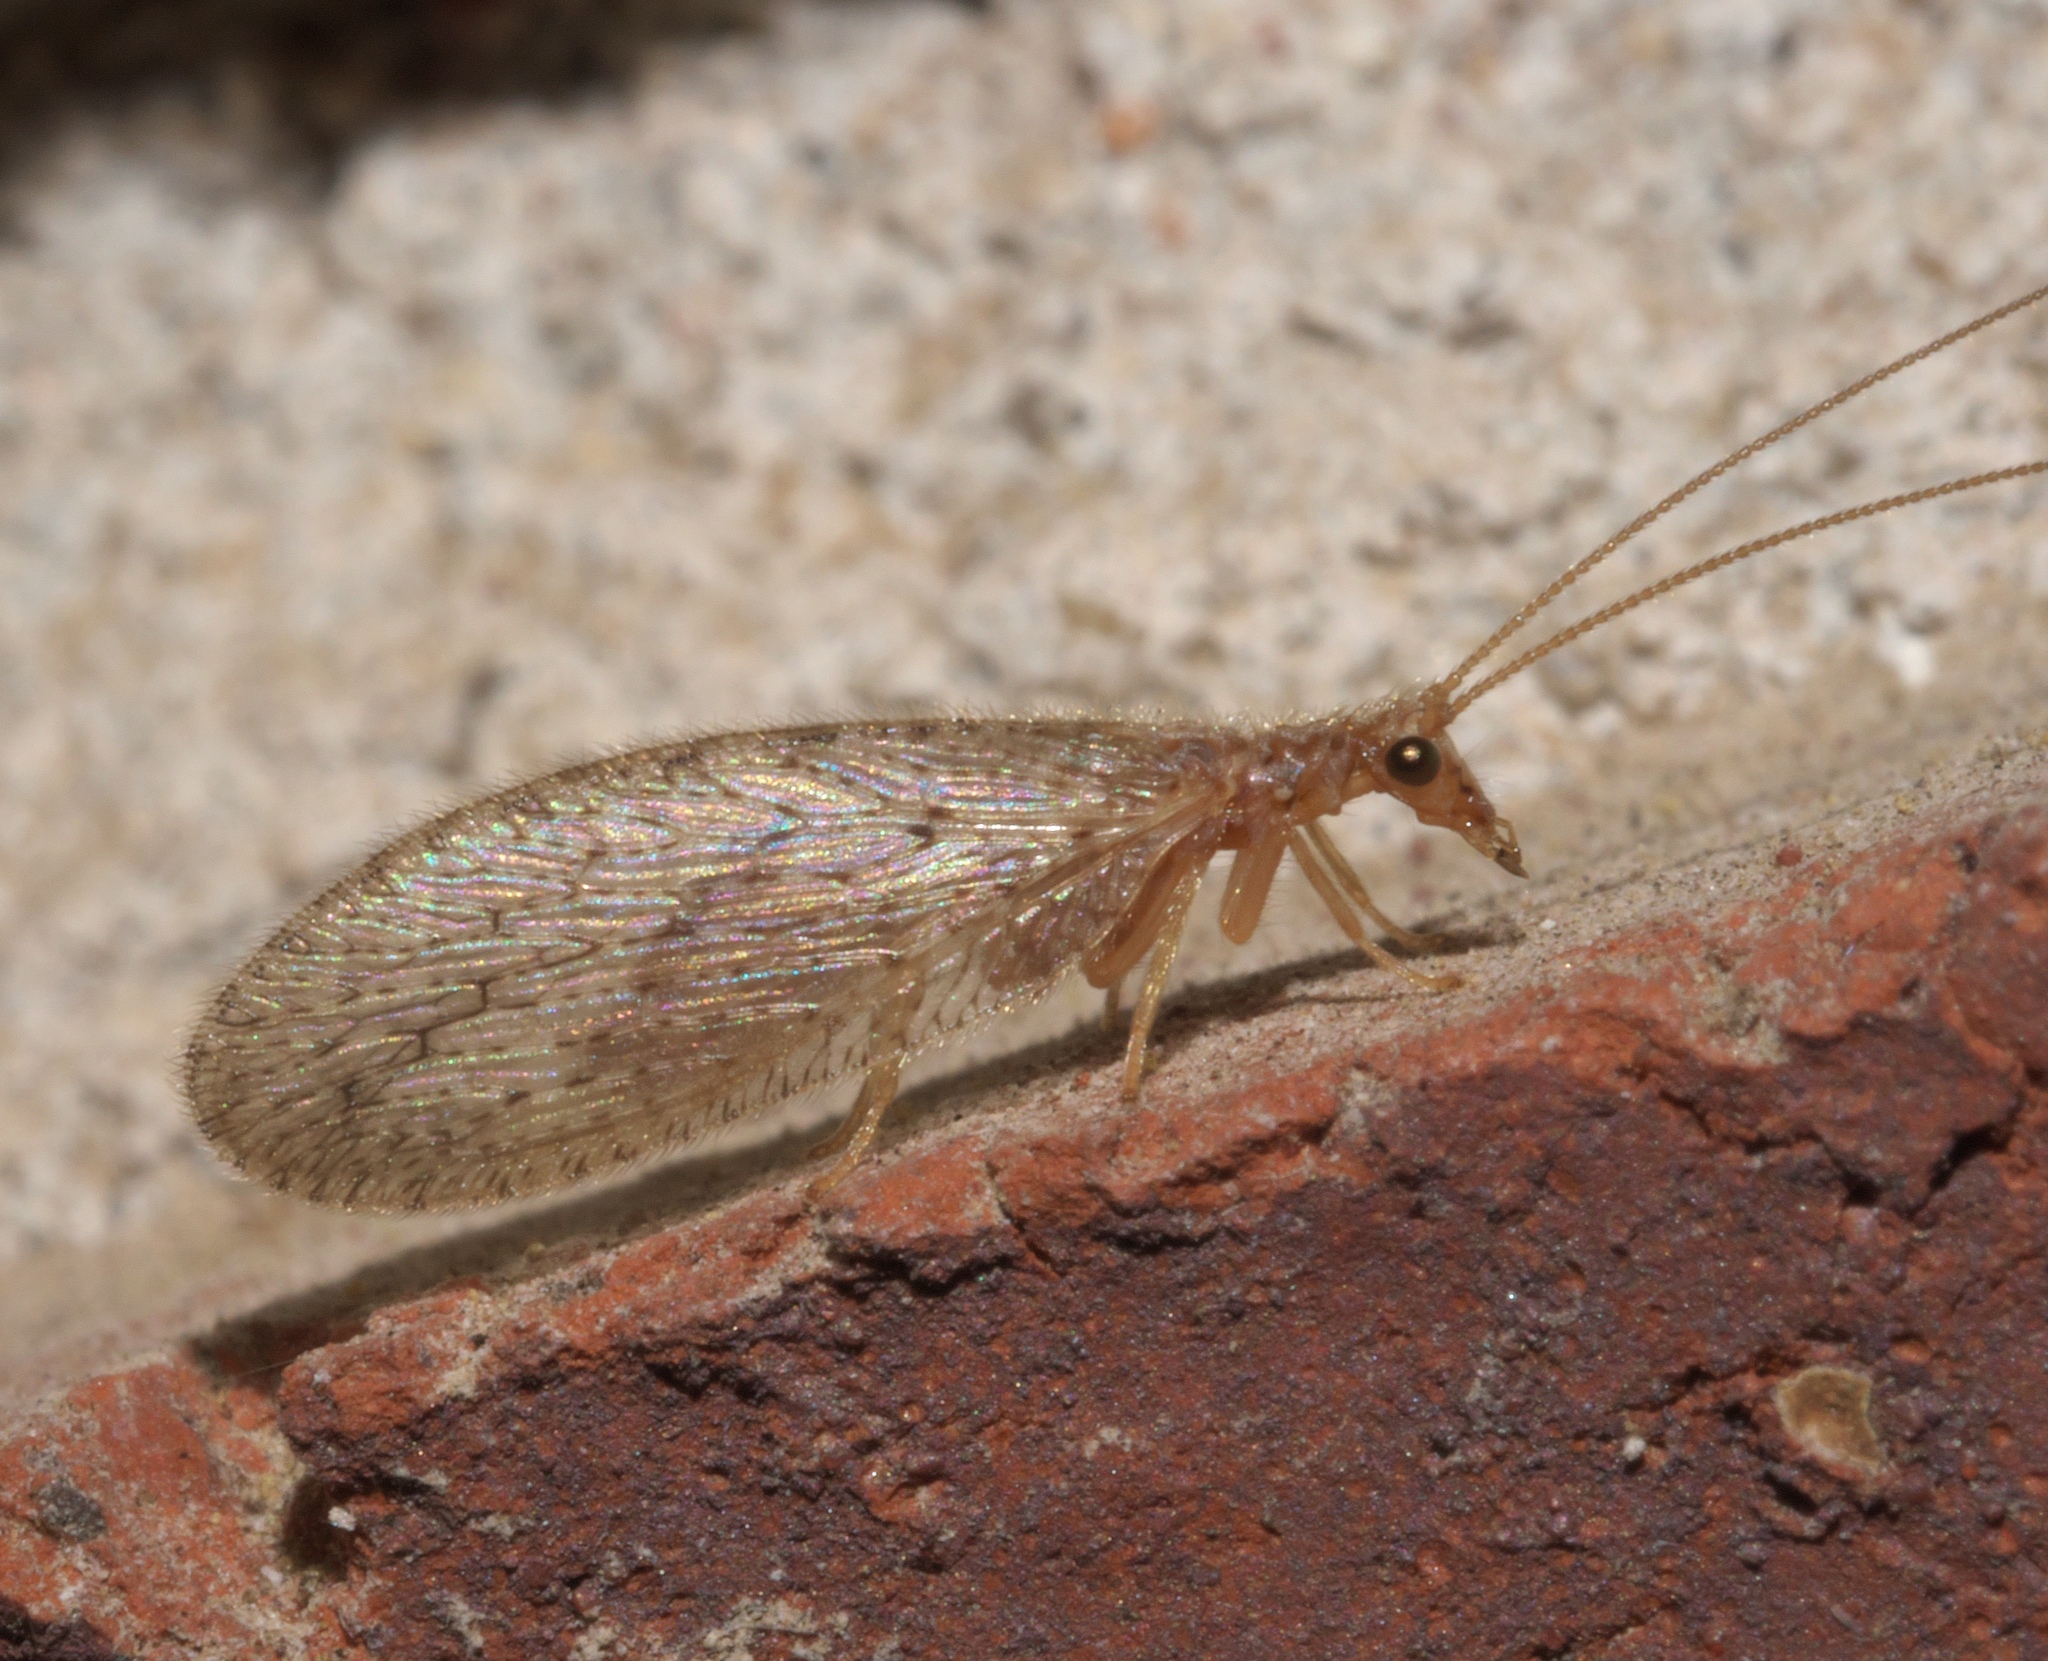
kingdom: Animalia
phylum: Arthropoda
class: Insecta
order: Neuroptera
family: Hemerobiidae
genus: Micromus
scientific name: Micromus subanticus
